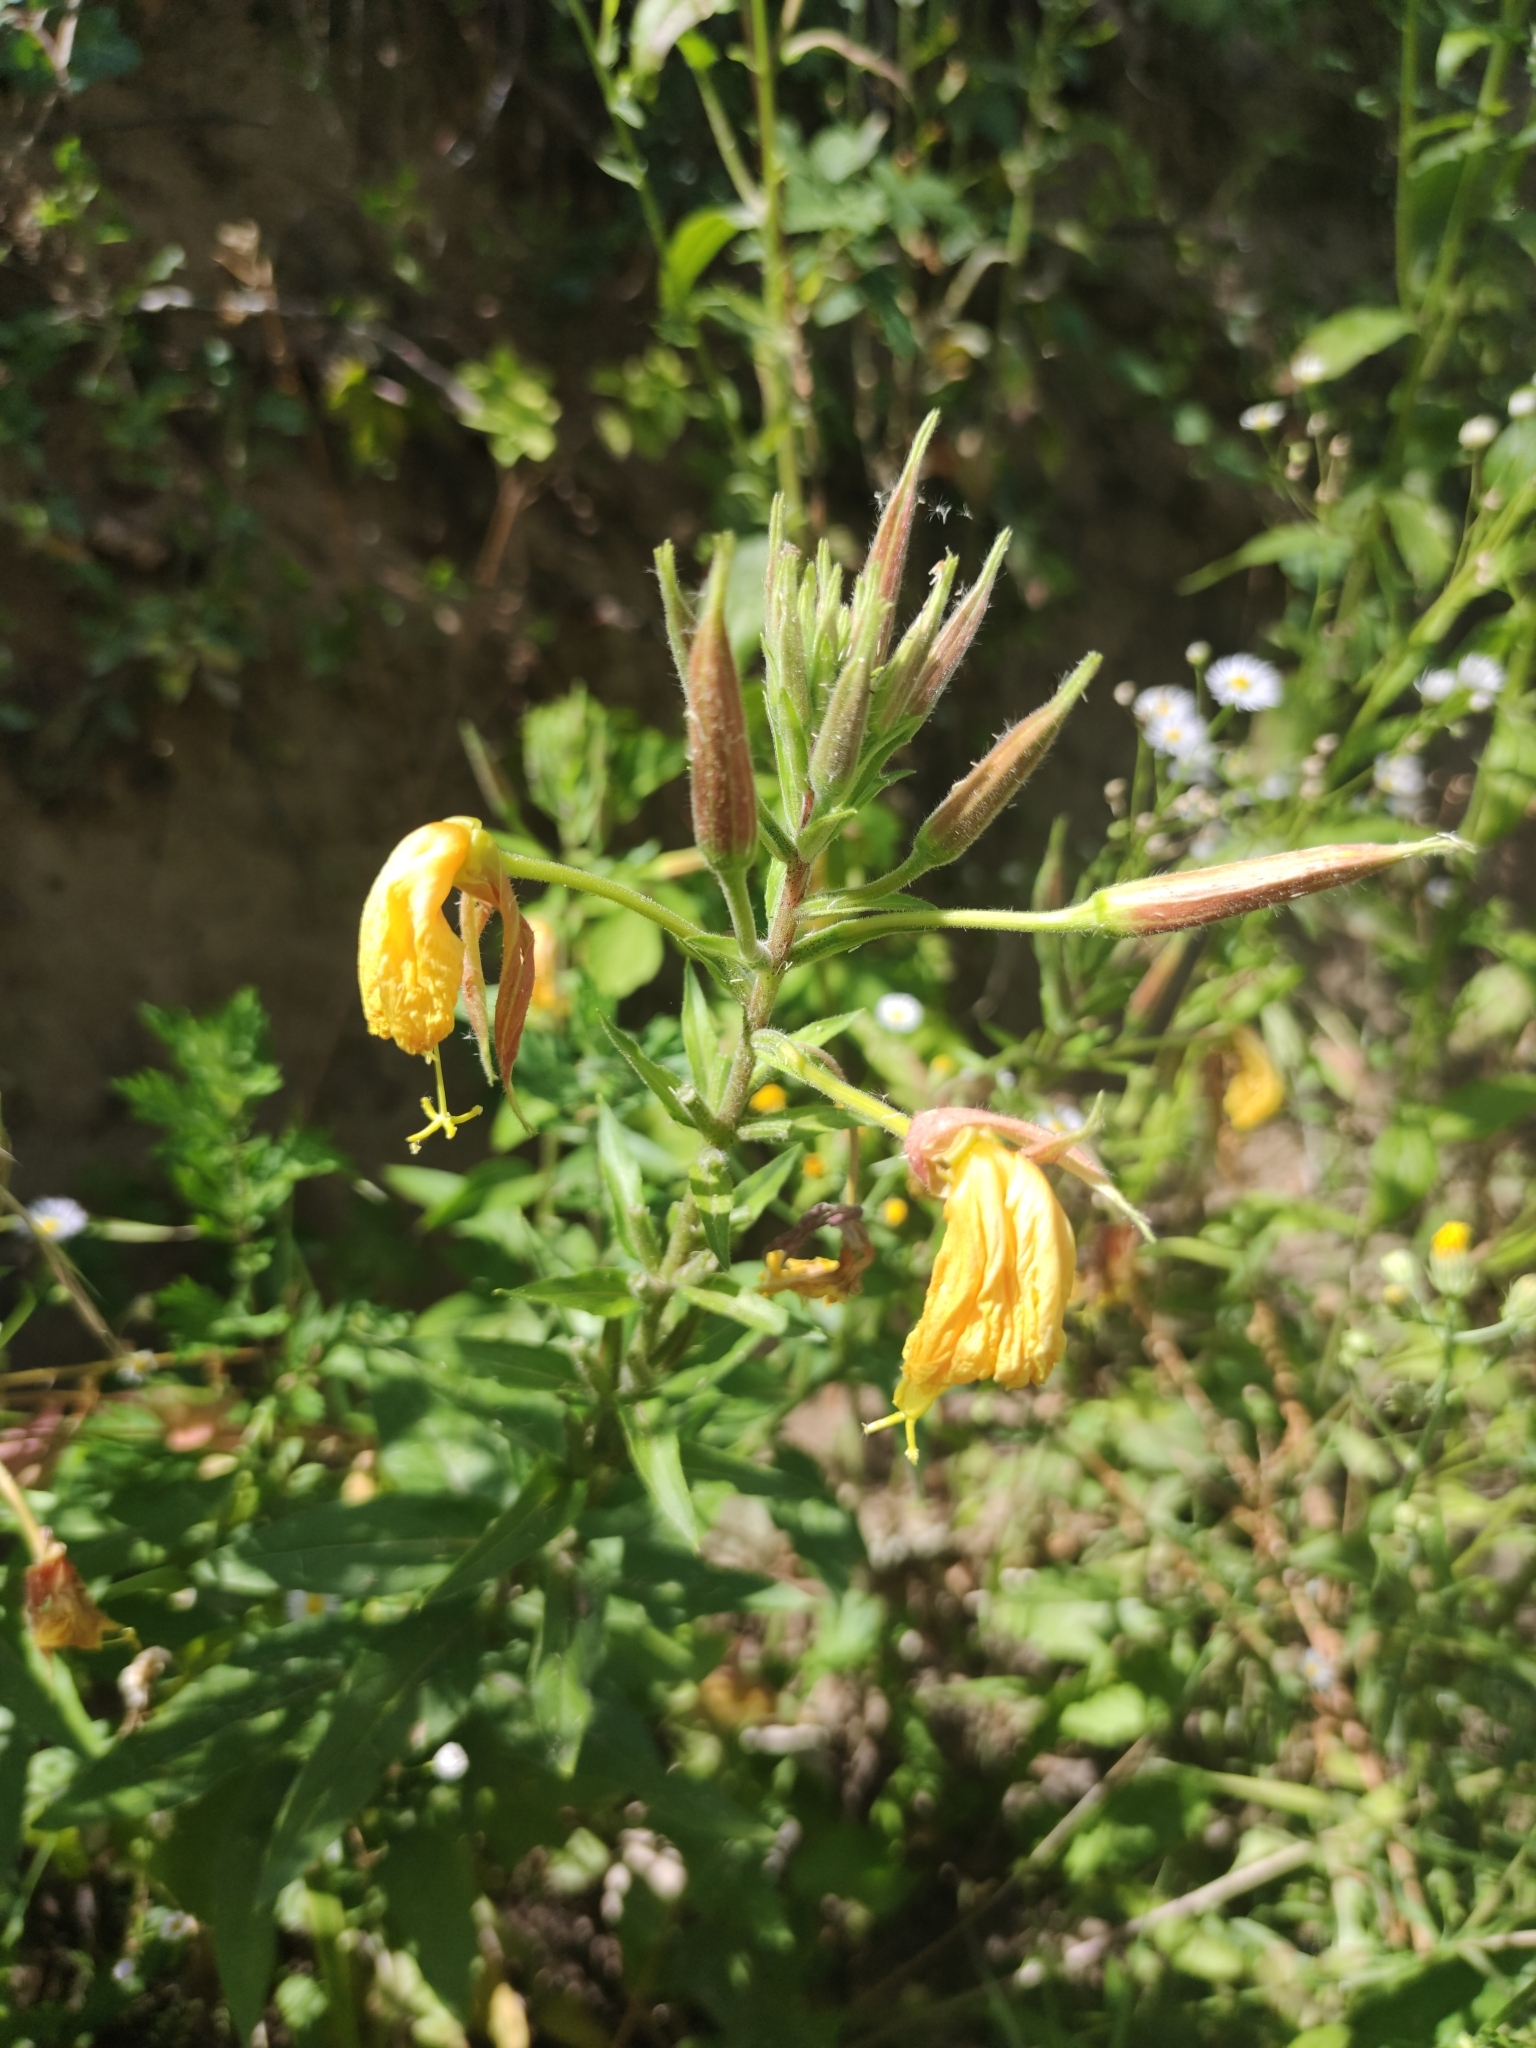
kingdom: Plantae
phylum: Tracheophyta
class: Magnoliopsida
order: Myrtales
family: Onagraceae
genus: Oenothera
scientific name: Oenothera glazioviana
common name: Large-flowered evening-primrose
